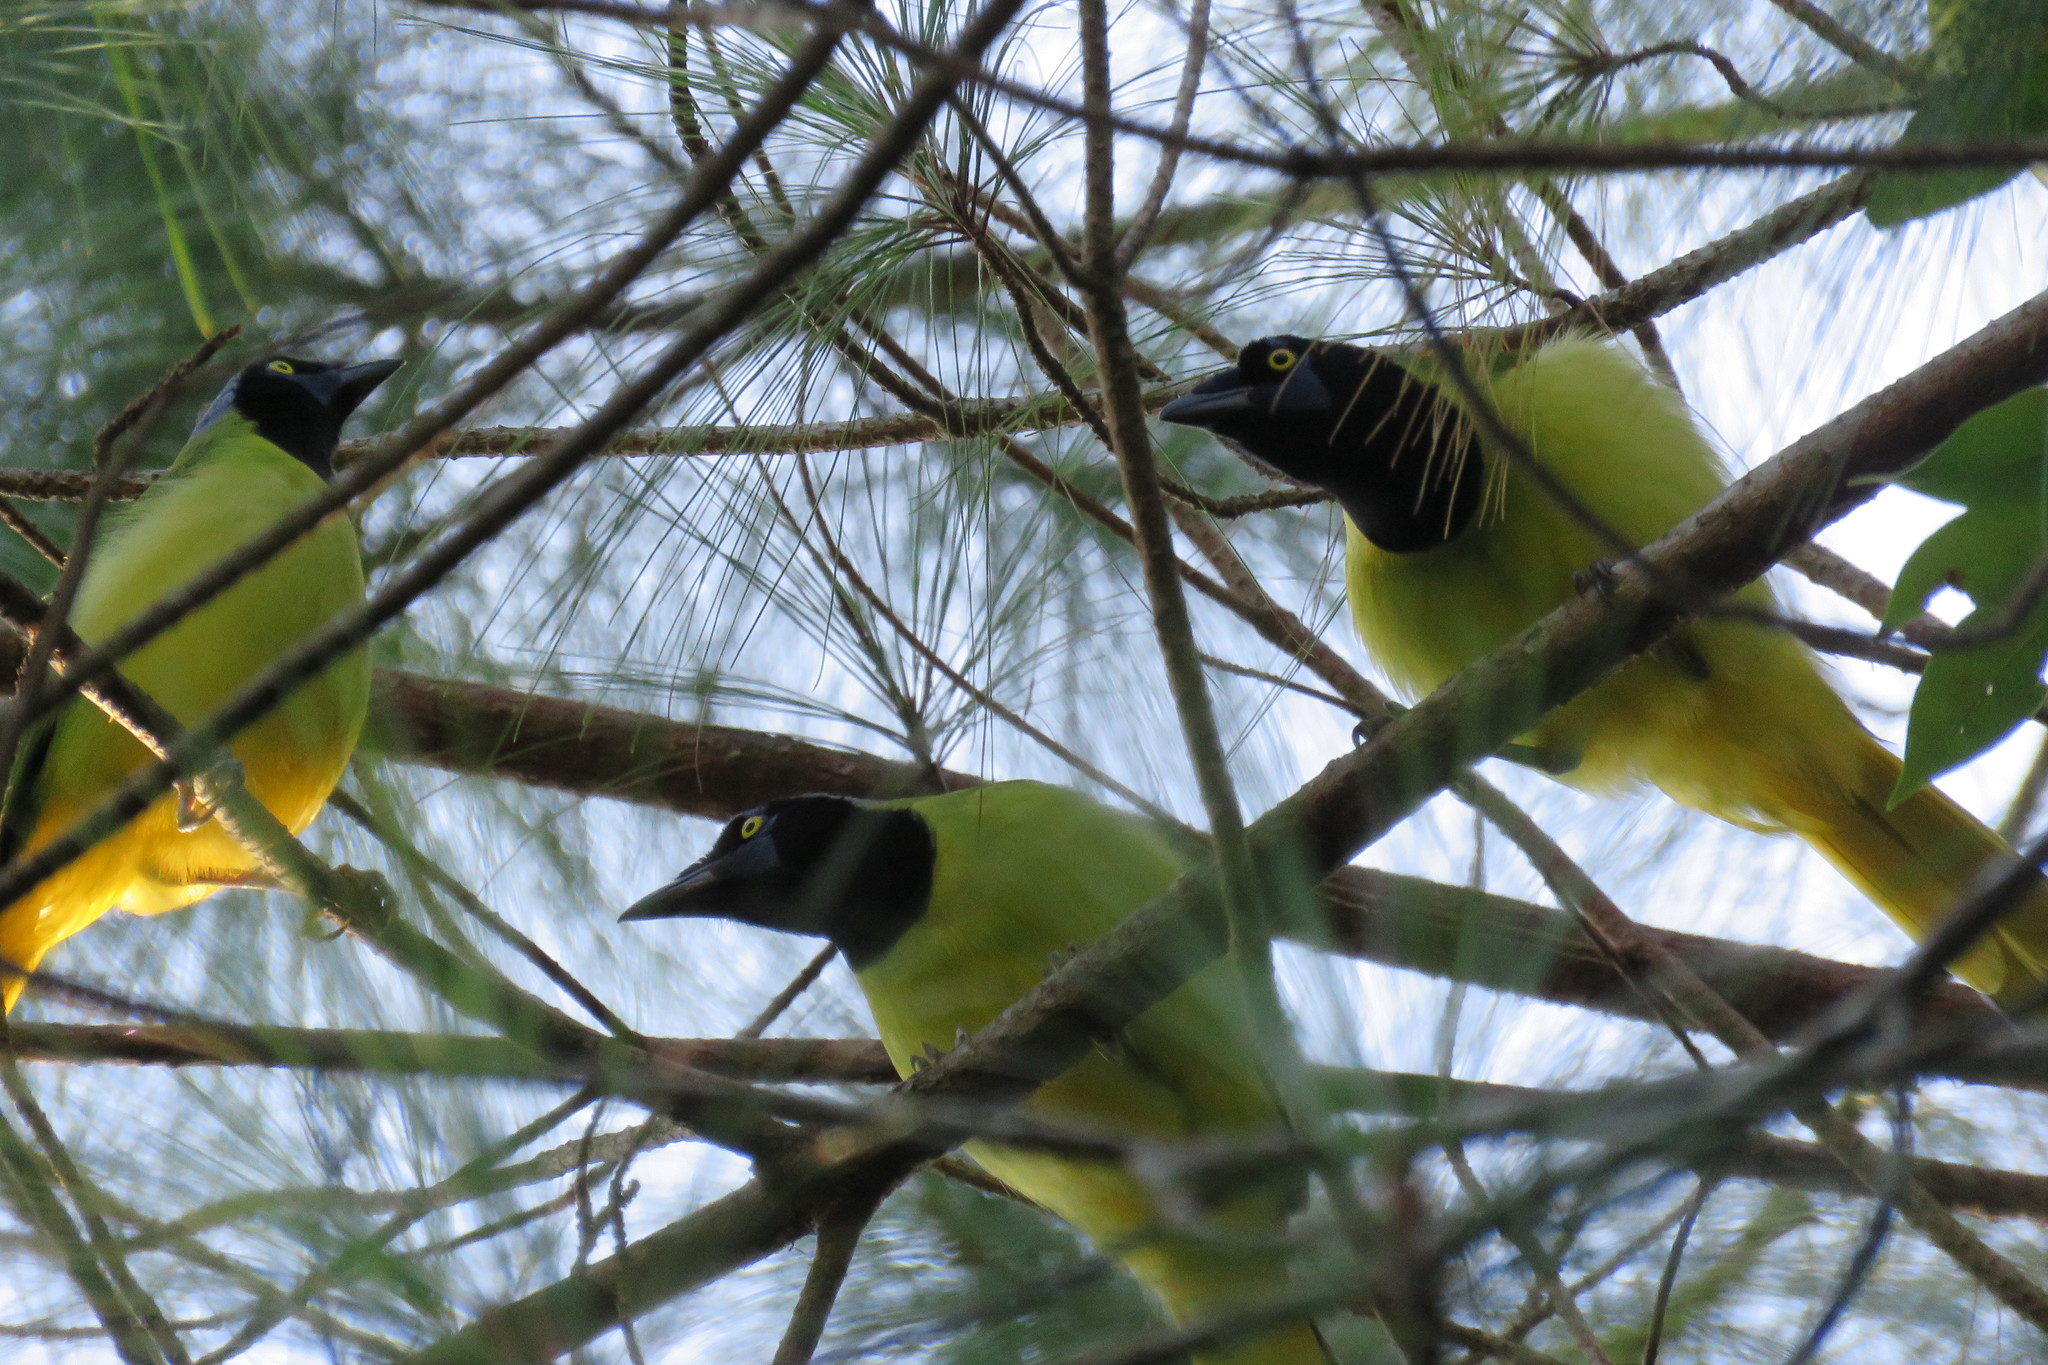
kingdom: Animalia
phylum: Chordata
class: Aves
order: Passeriformes
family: Corvidae
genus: Cyanocorax
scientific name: Cyanocorax yncas
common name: Green jay
